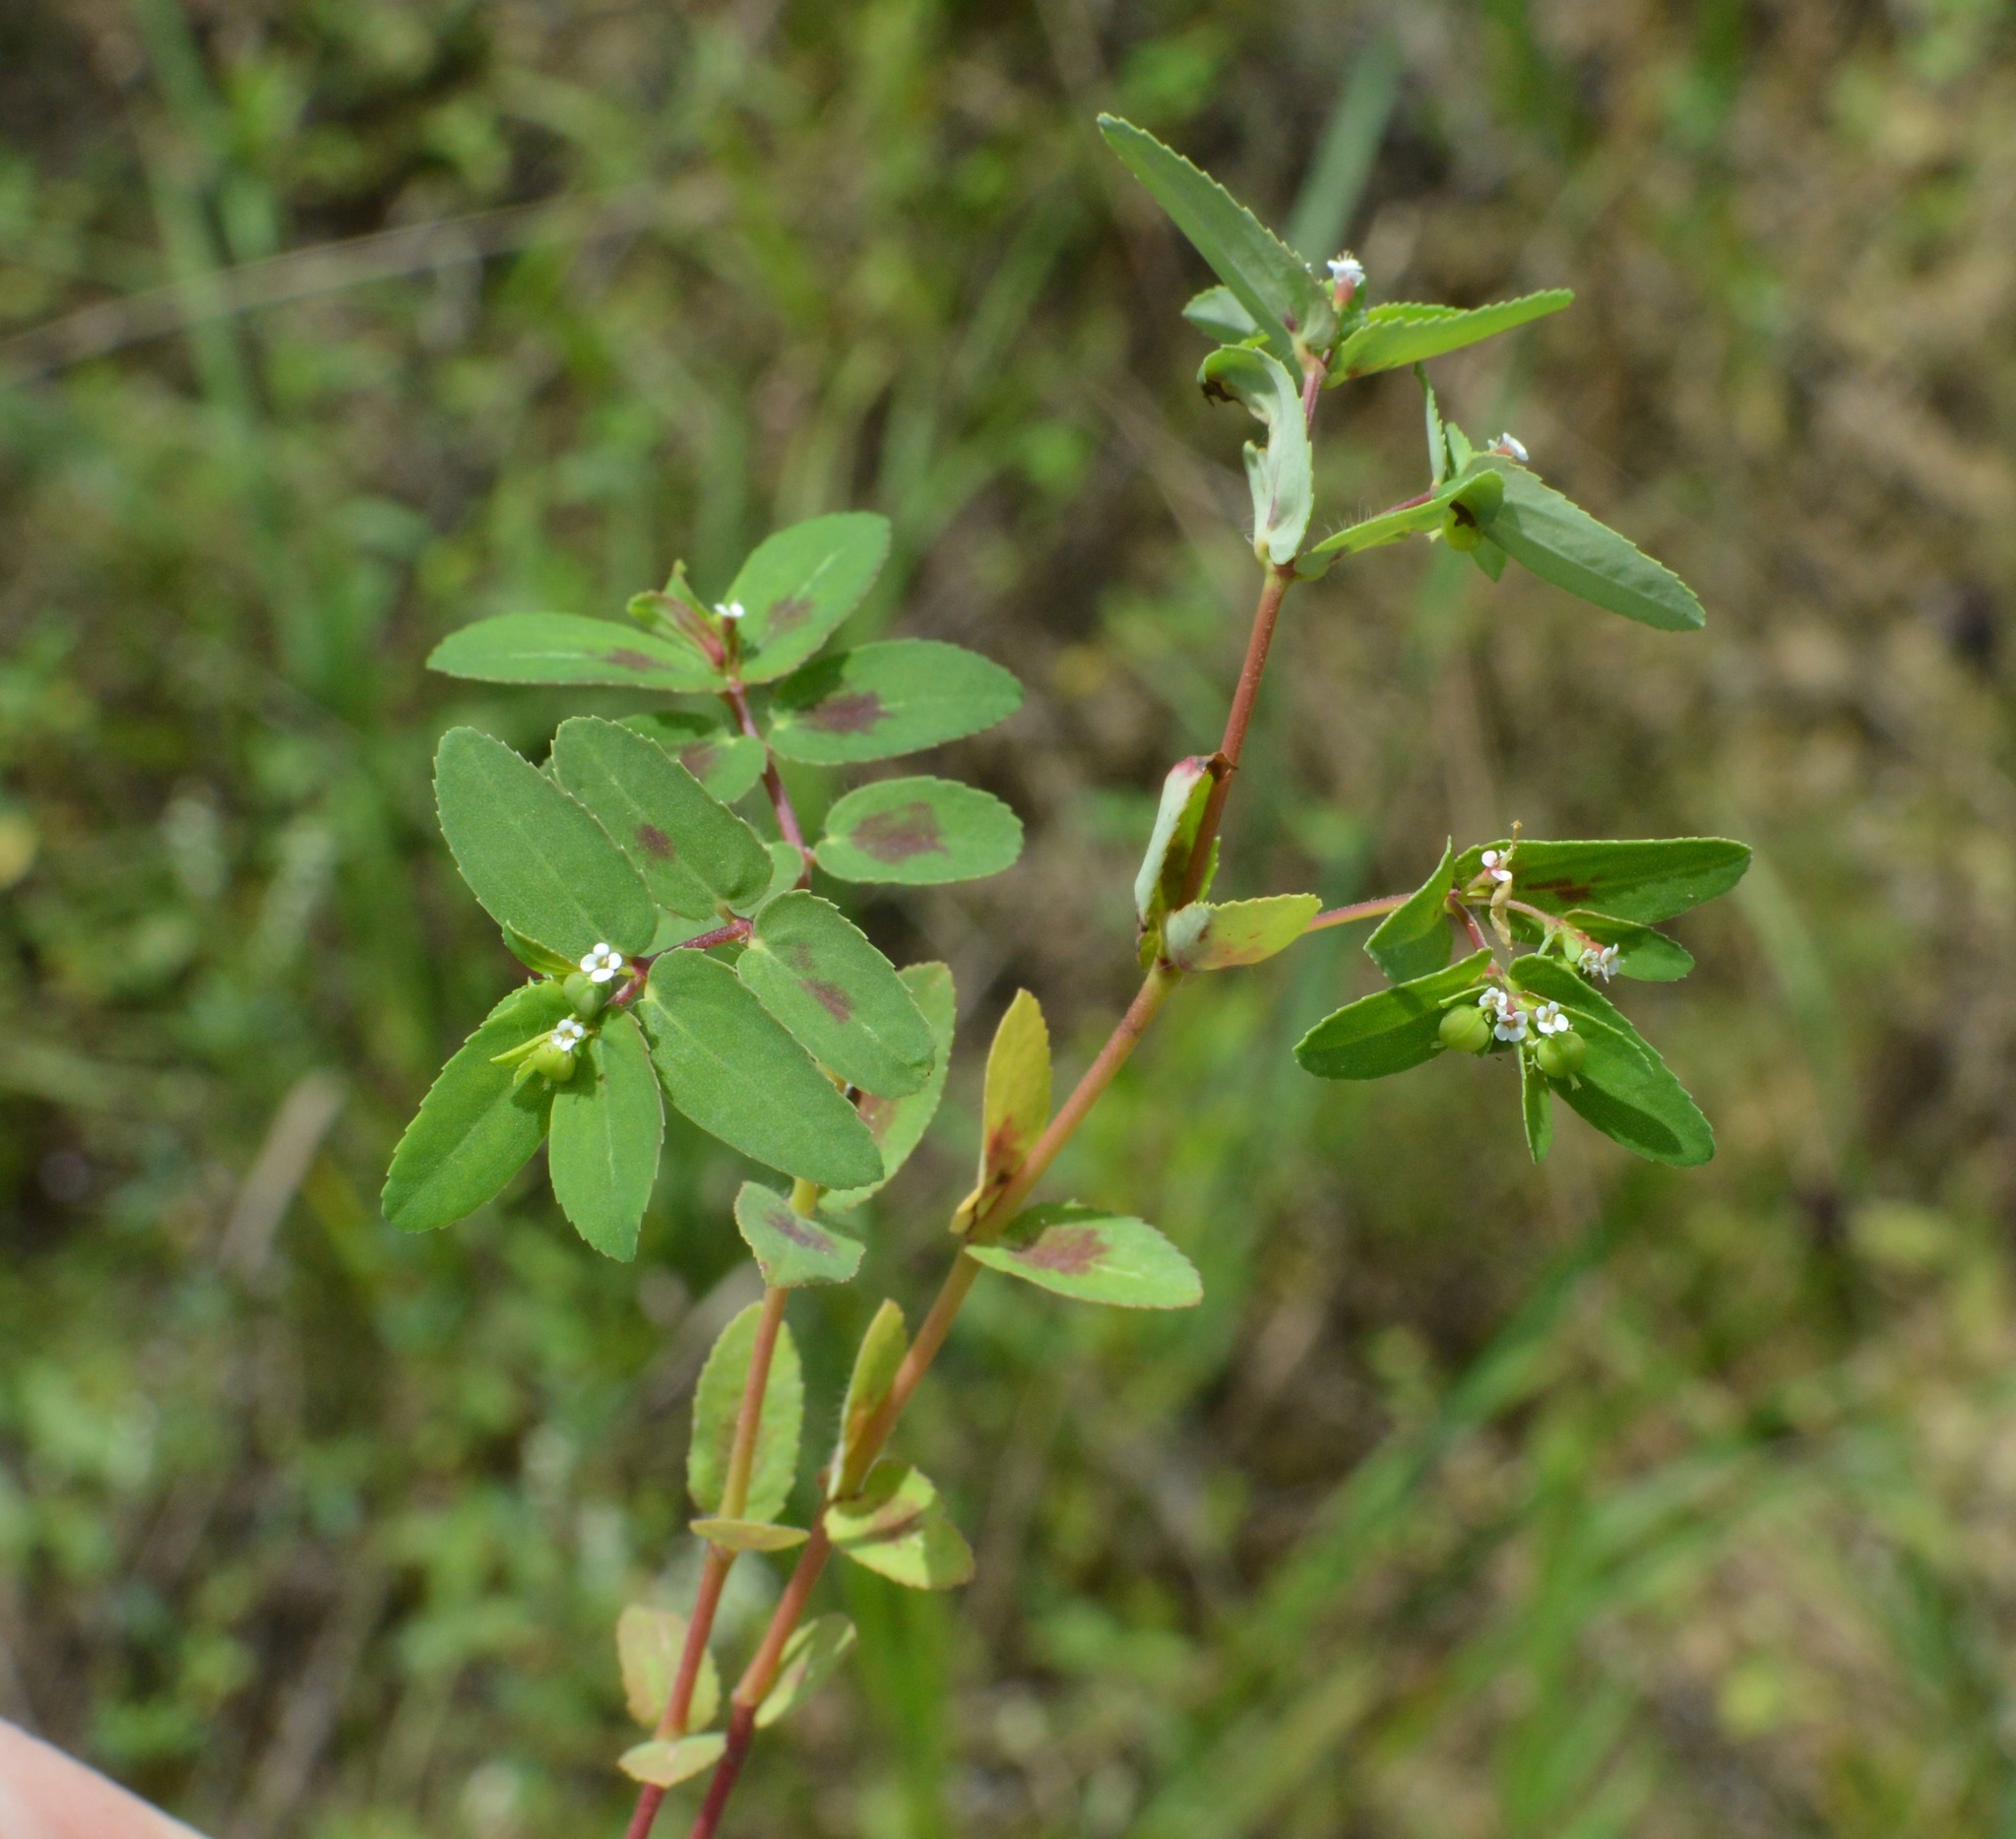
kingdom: Plantae
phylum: Tracheophyta
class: Magnoliopsida
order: Malpighiales
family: Euphorbiaceae
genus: Euphorbia
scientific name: Euphorbia nutans
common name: Eyebane
